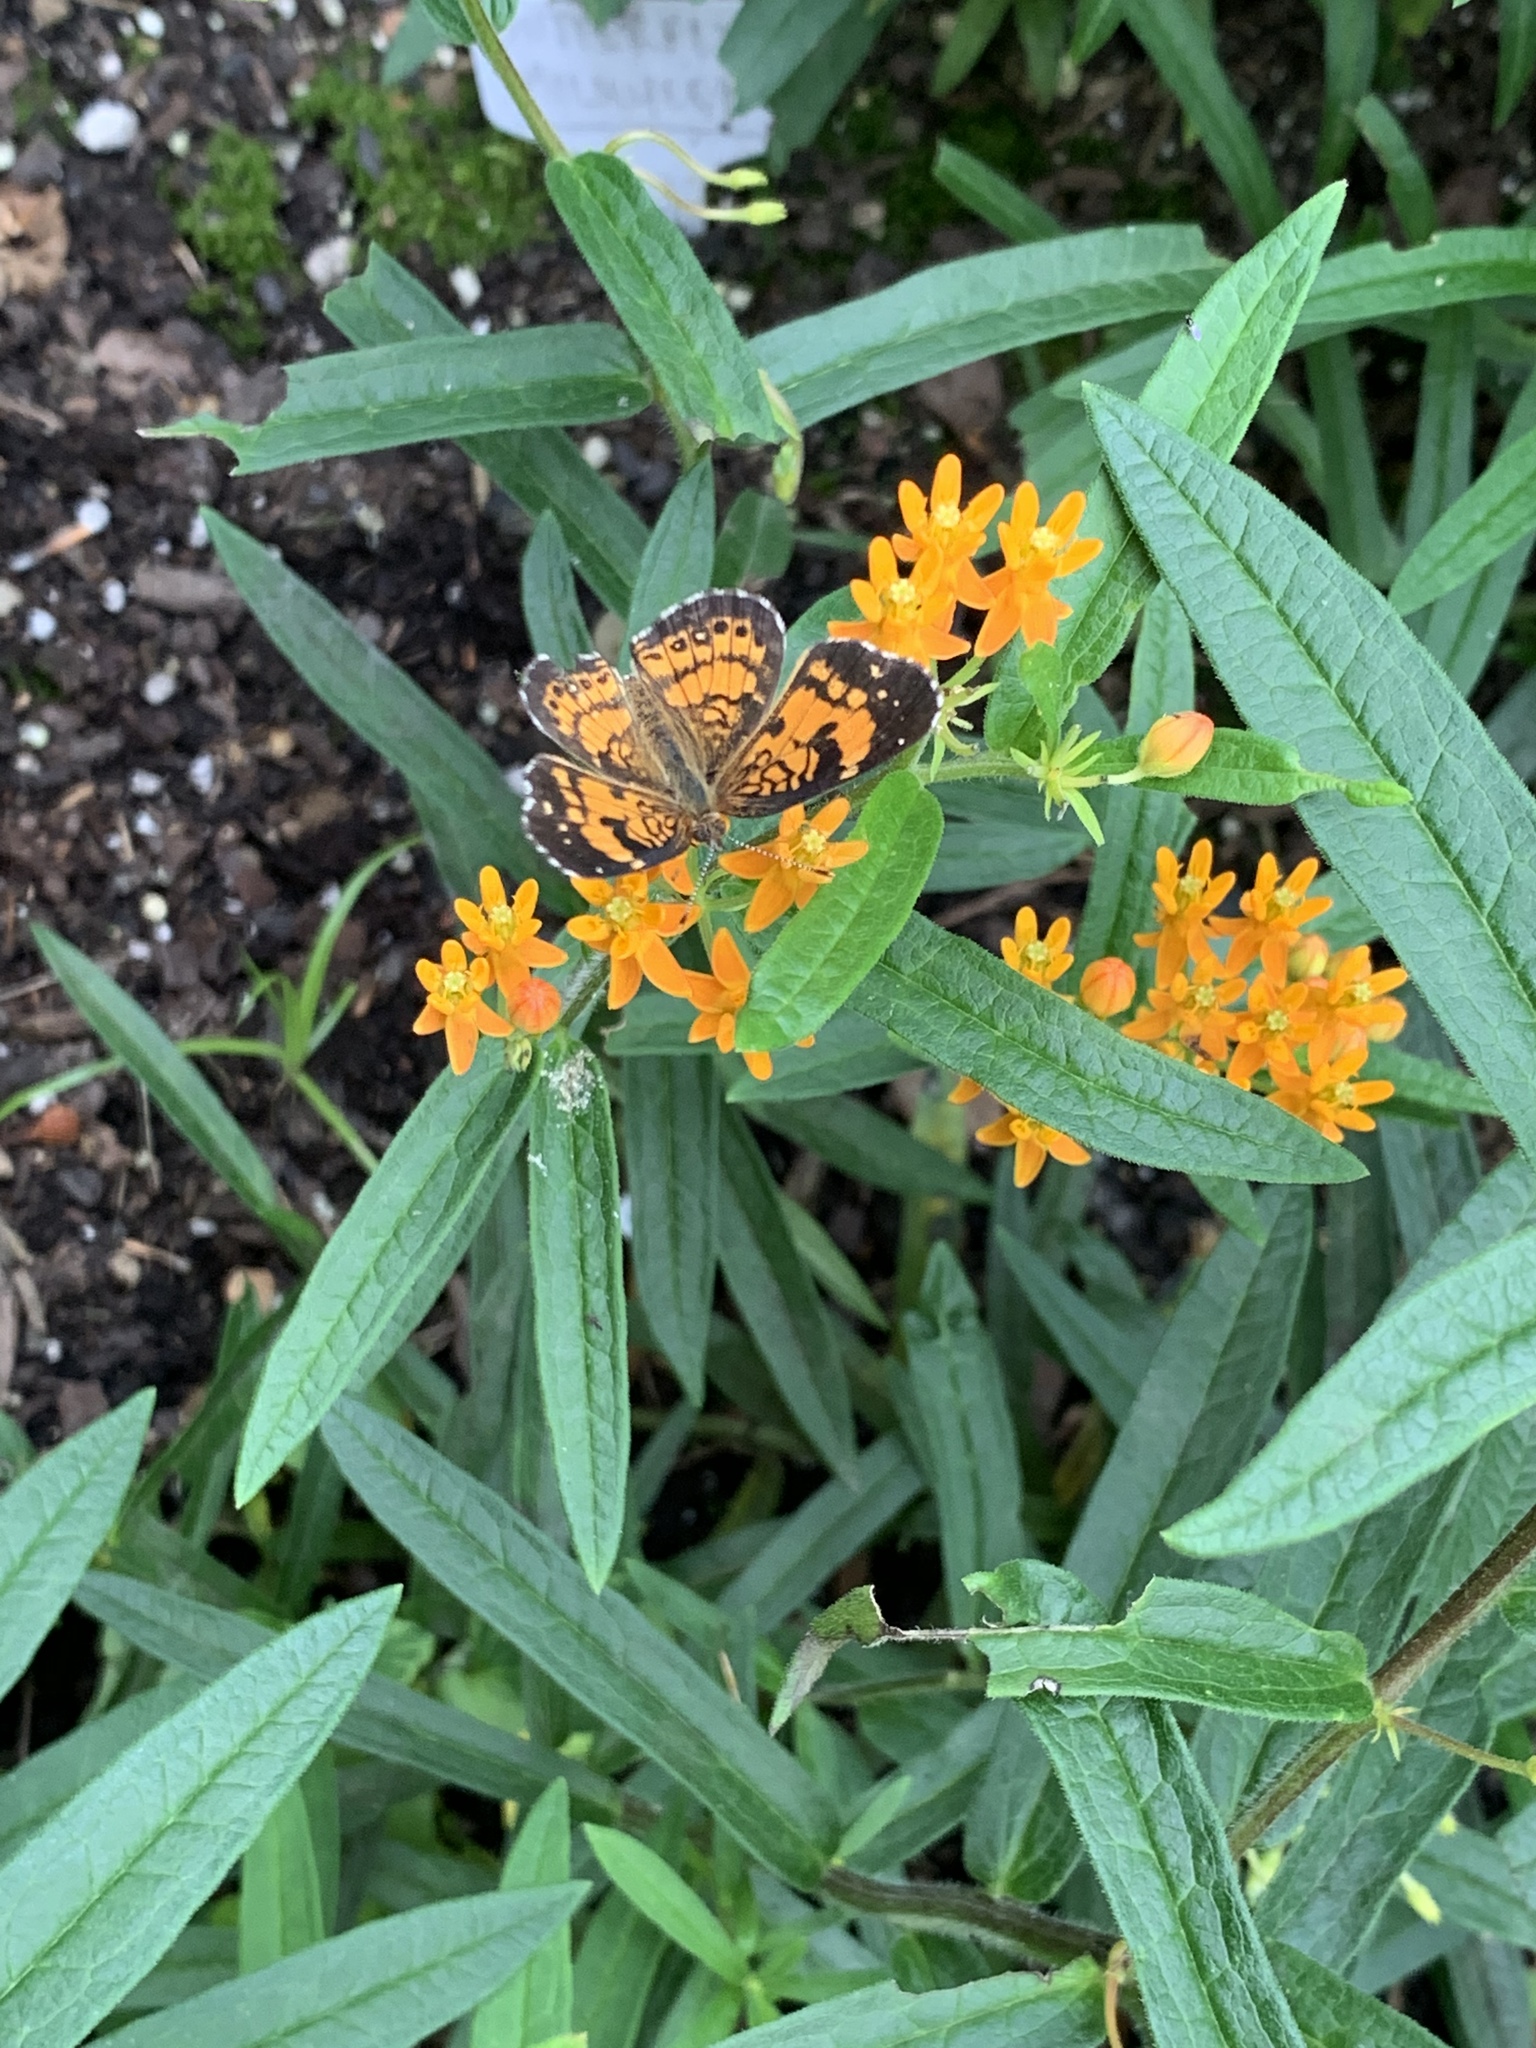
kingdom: Animalia
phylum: Arthropoda
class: Insecta
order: Lepidoptera
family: Nymphalidae
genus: Chlosyne
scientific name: Chlosyne nycteis
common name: Silvery checkerspot
